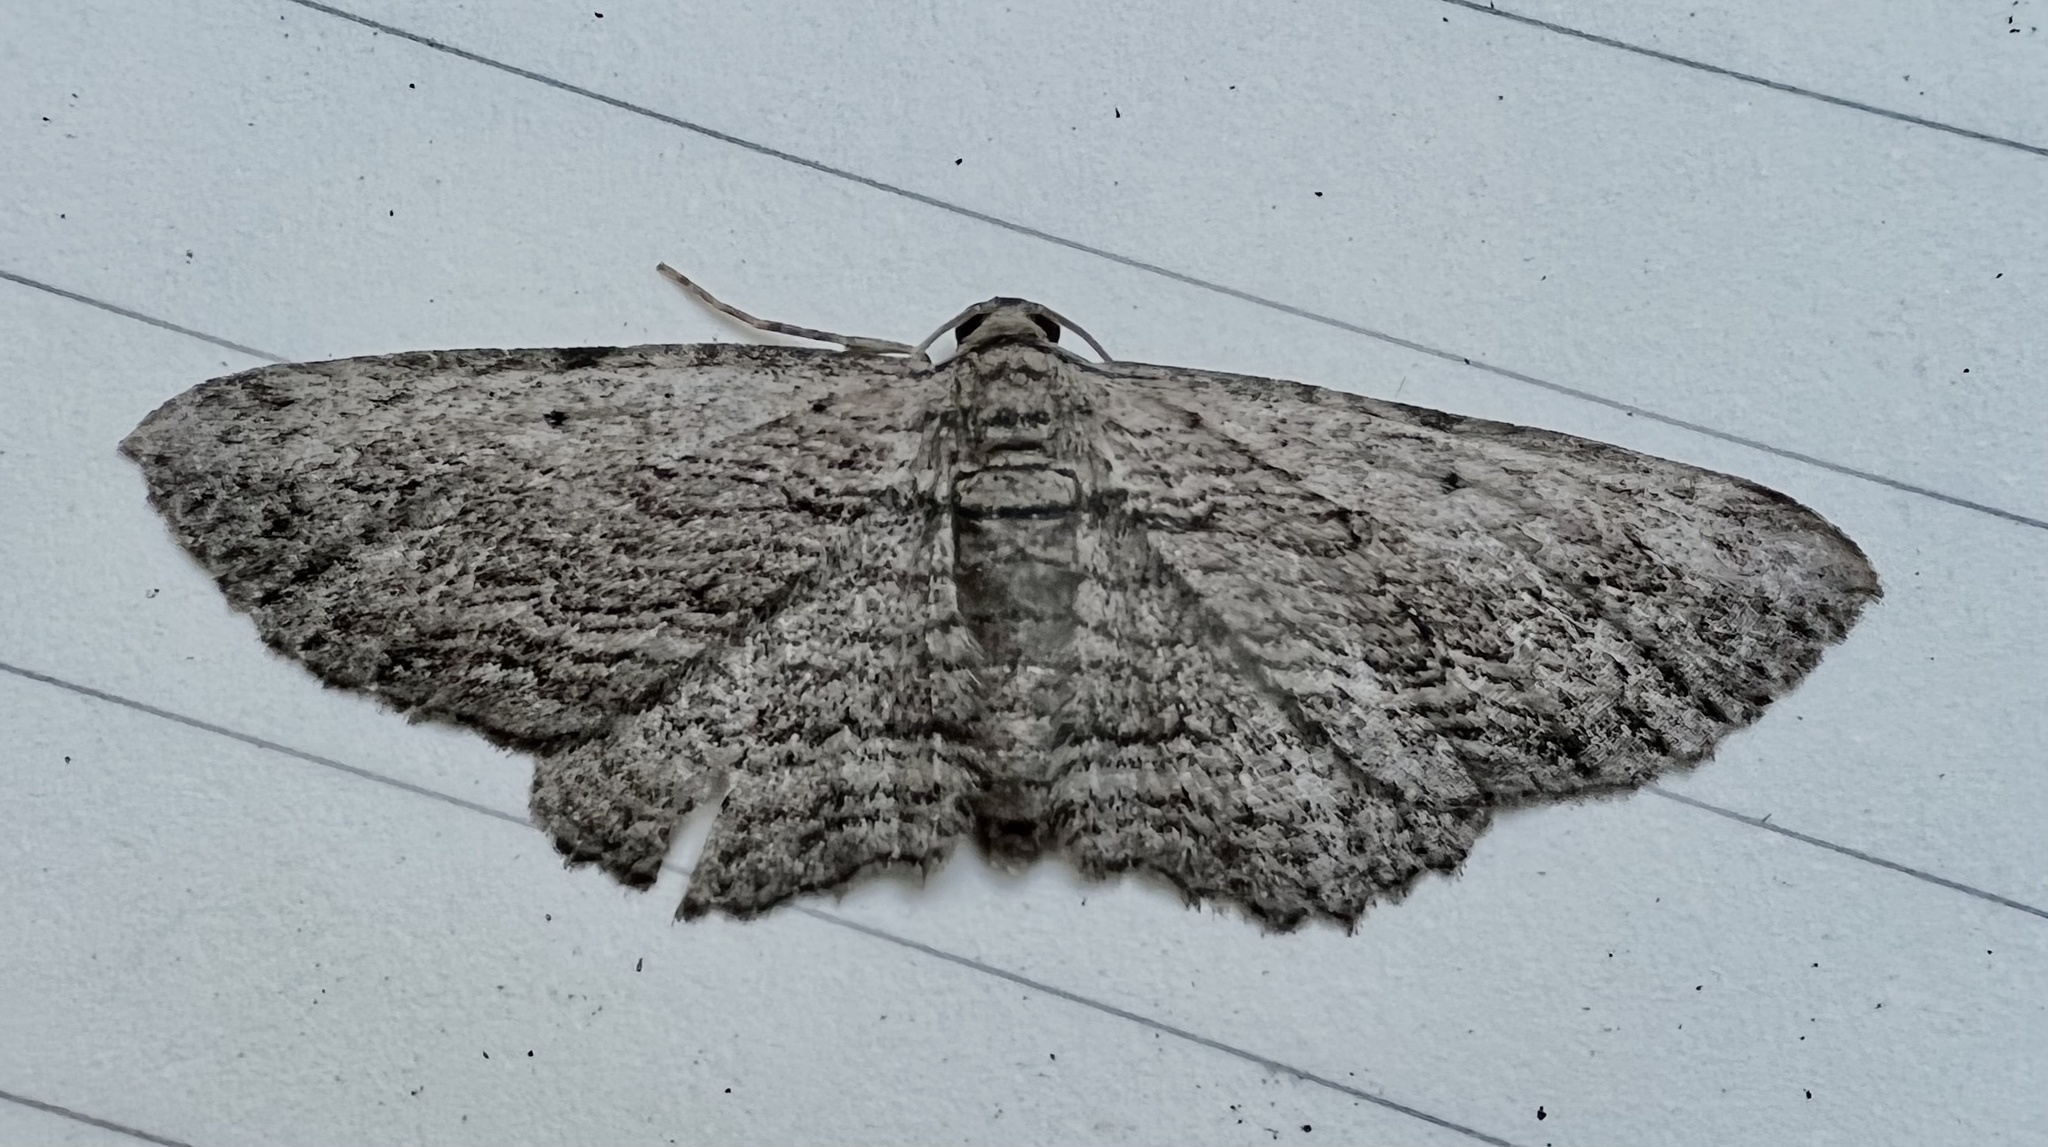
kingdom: Animalia
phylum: Arthropoda
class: Insecta
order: Lepidoptera
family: Geometridae
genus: Horisme
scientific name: Horisme intestinata
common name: Brown bark carpet
